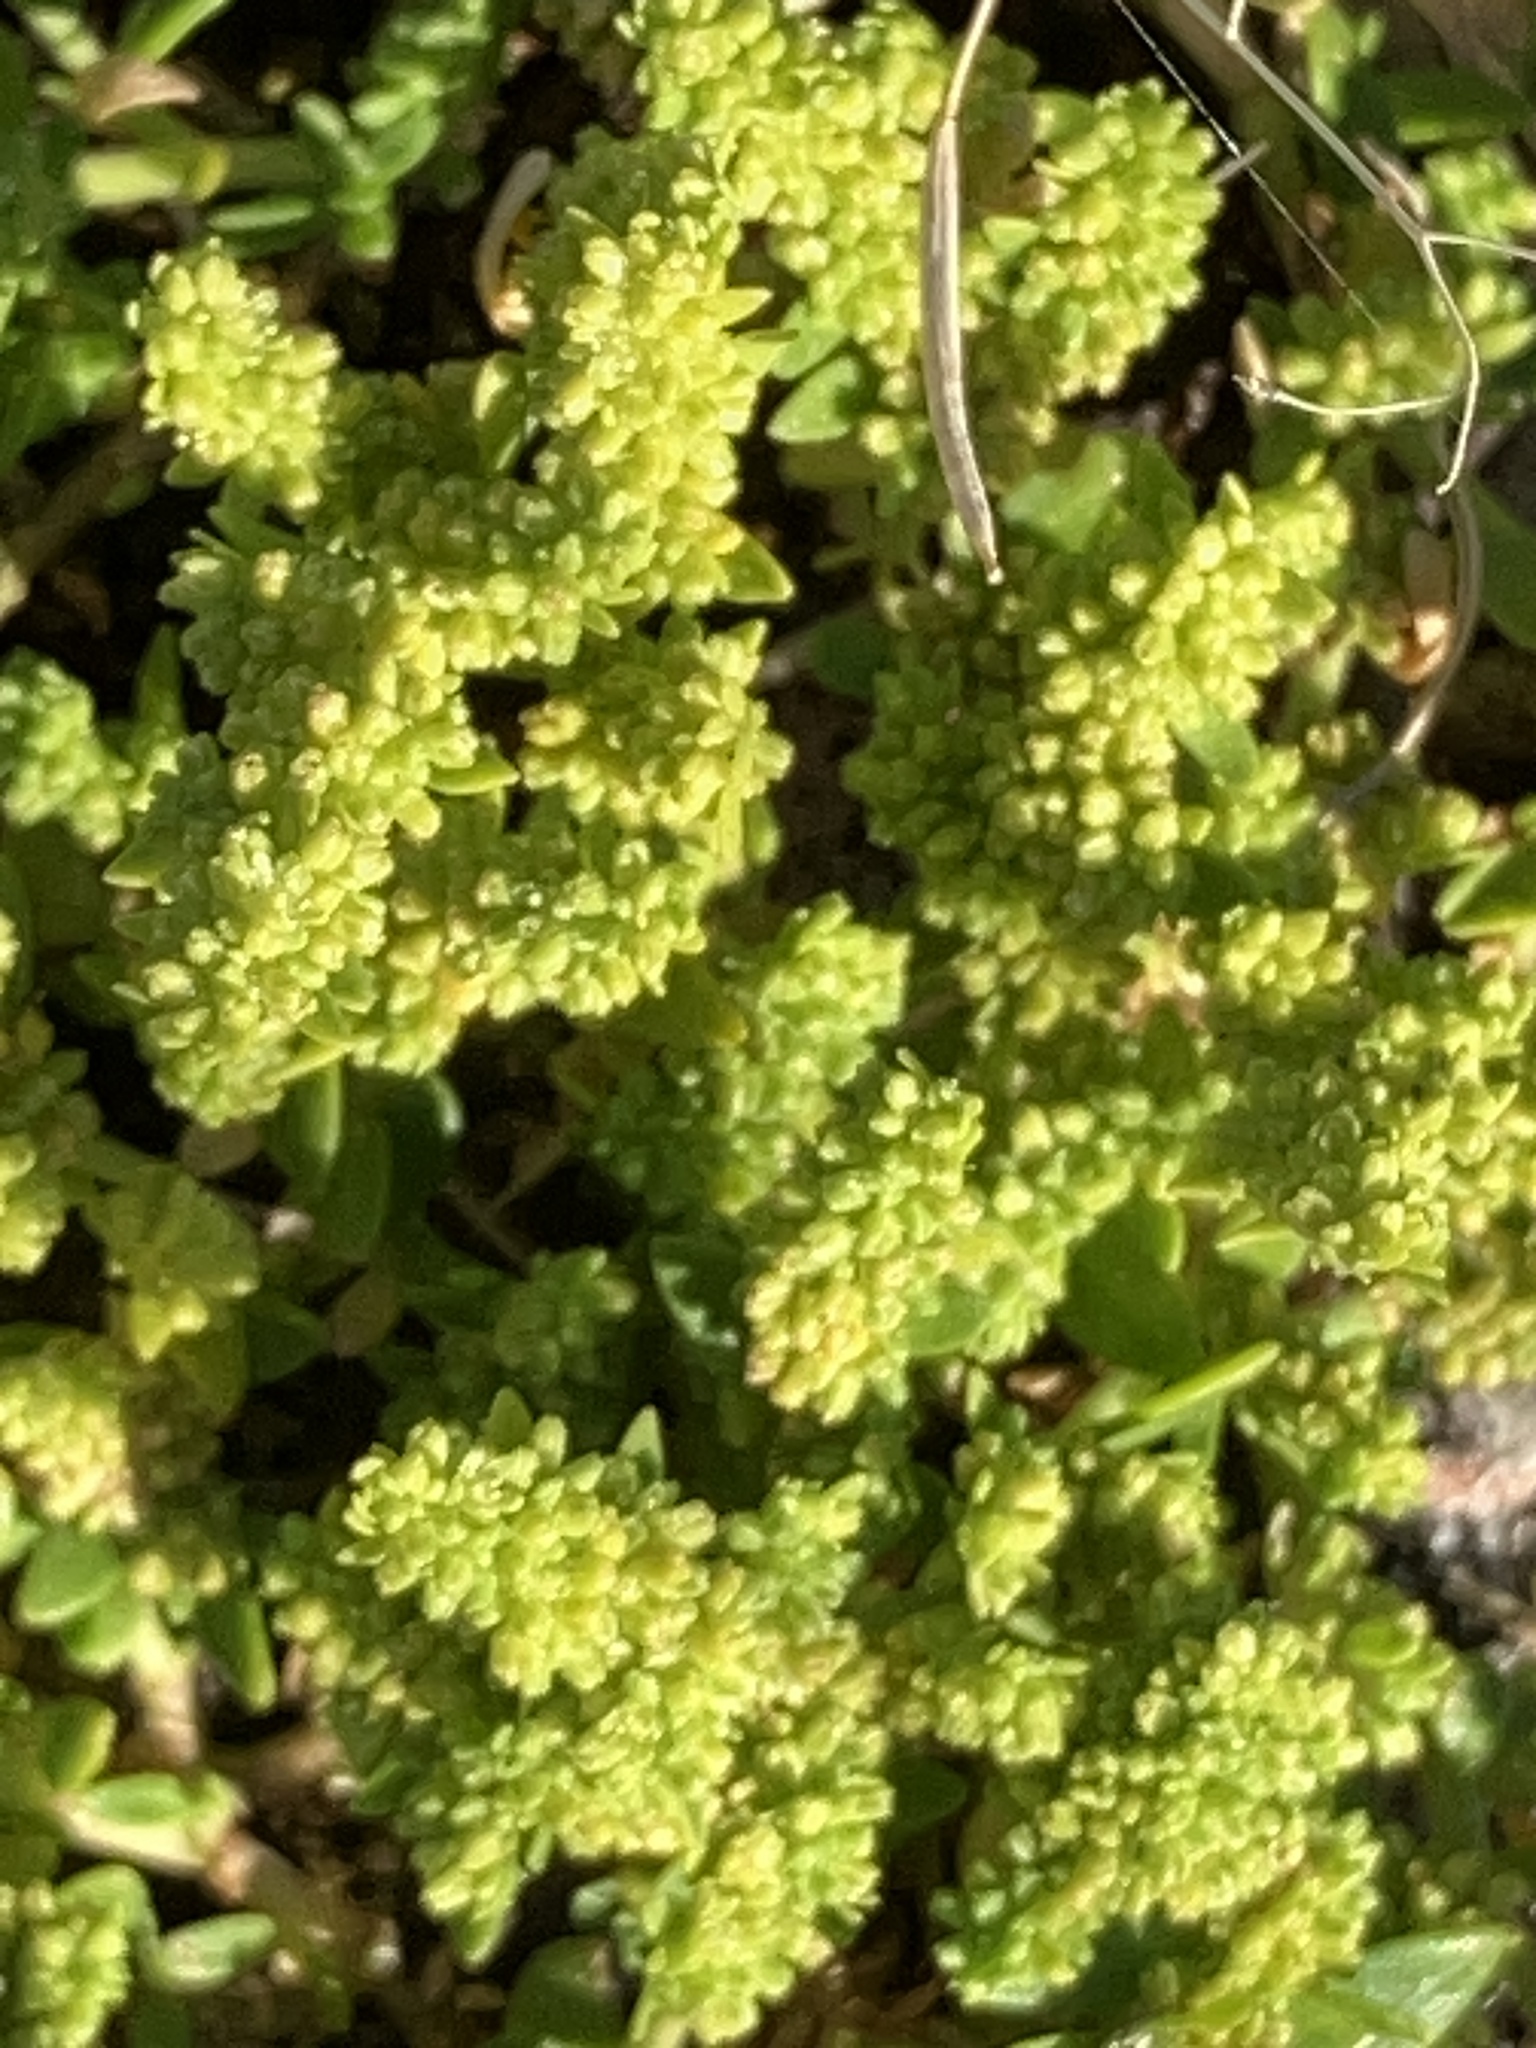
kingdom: Plantae
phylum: Tracheophyta
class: Magnoliopsida
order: Caryophyllales
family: Caryophyllaceae
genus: Herniaria
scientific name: Herniaria glabra
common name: Smooth rupturewort
